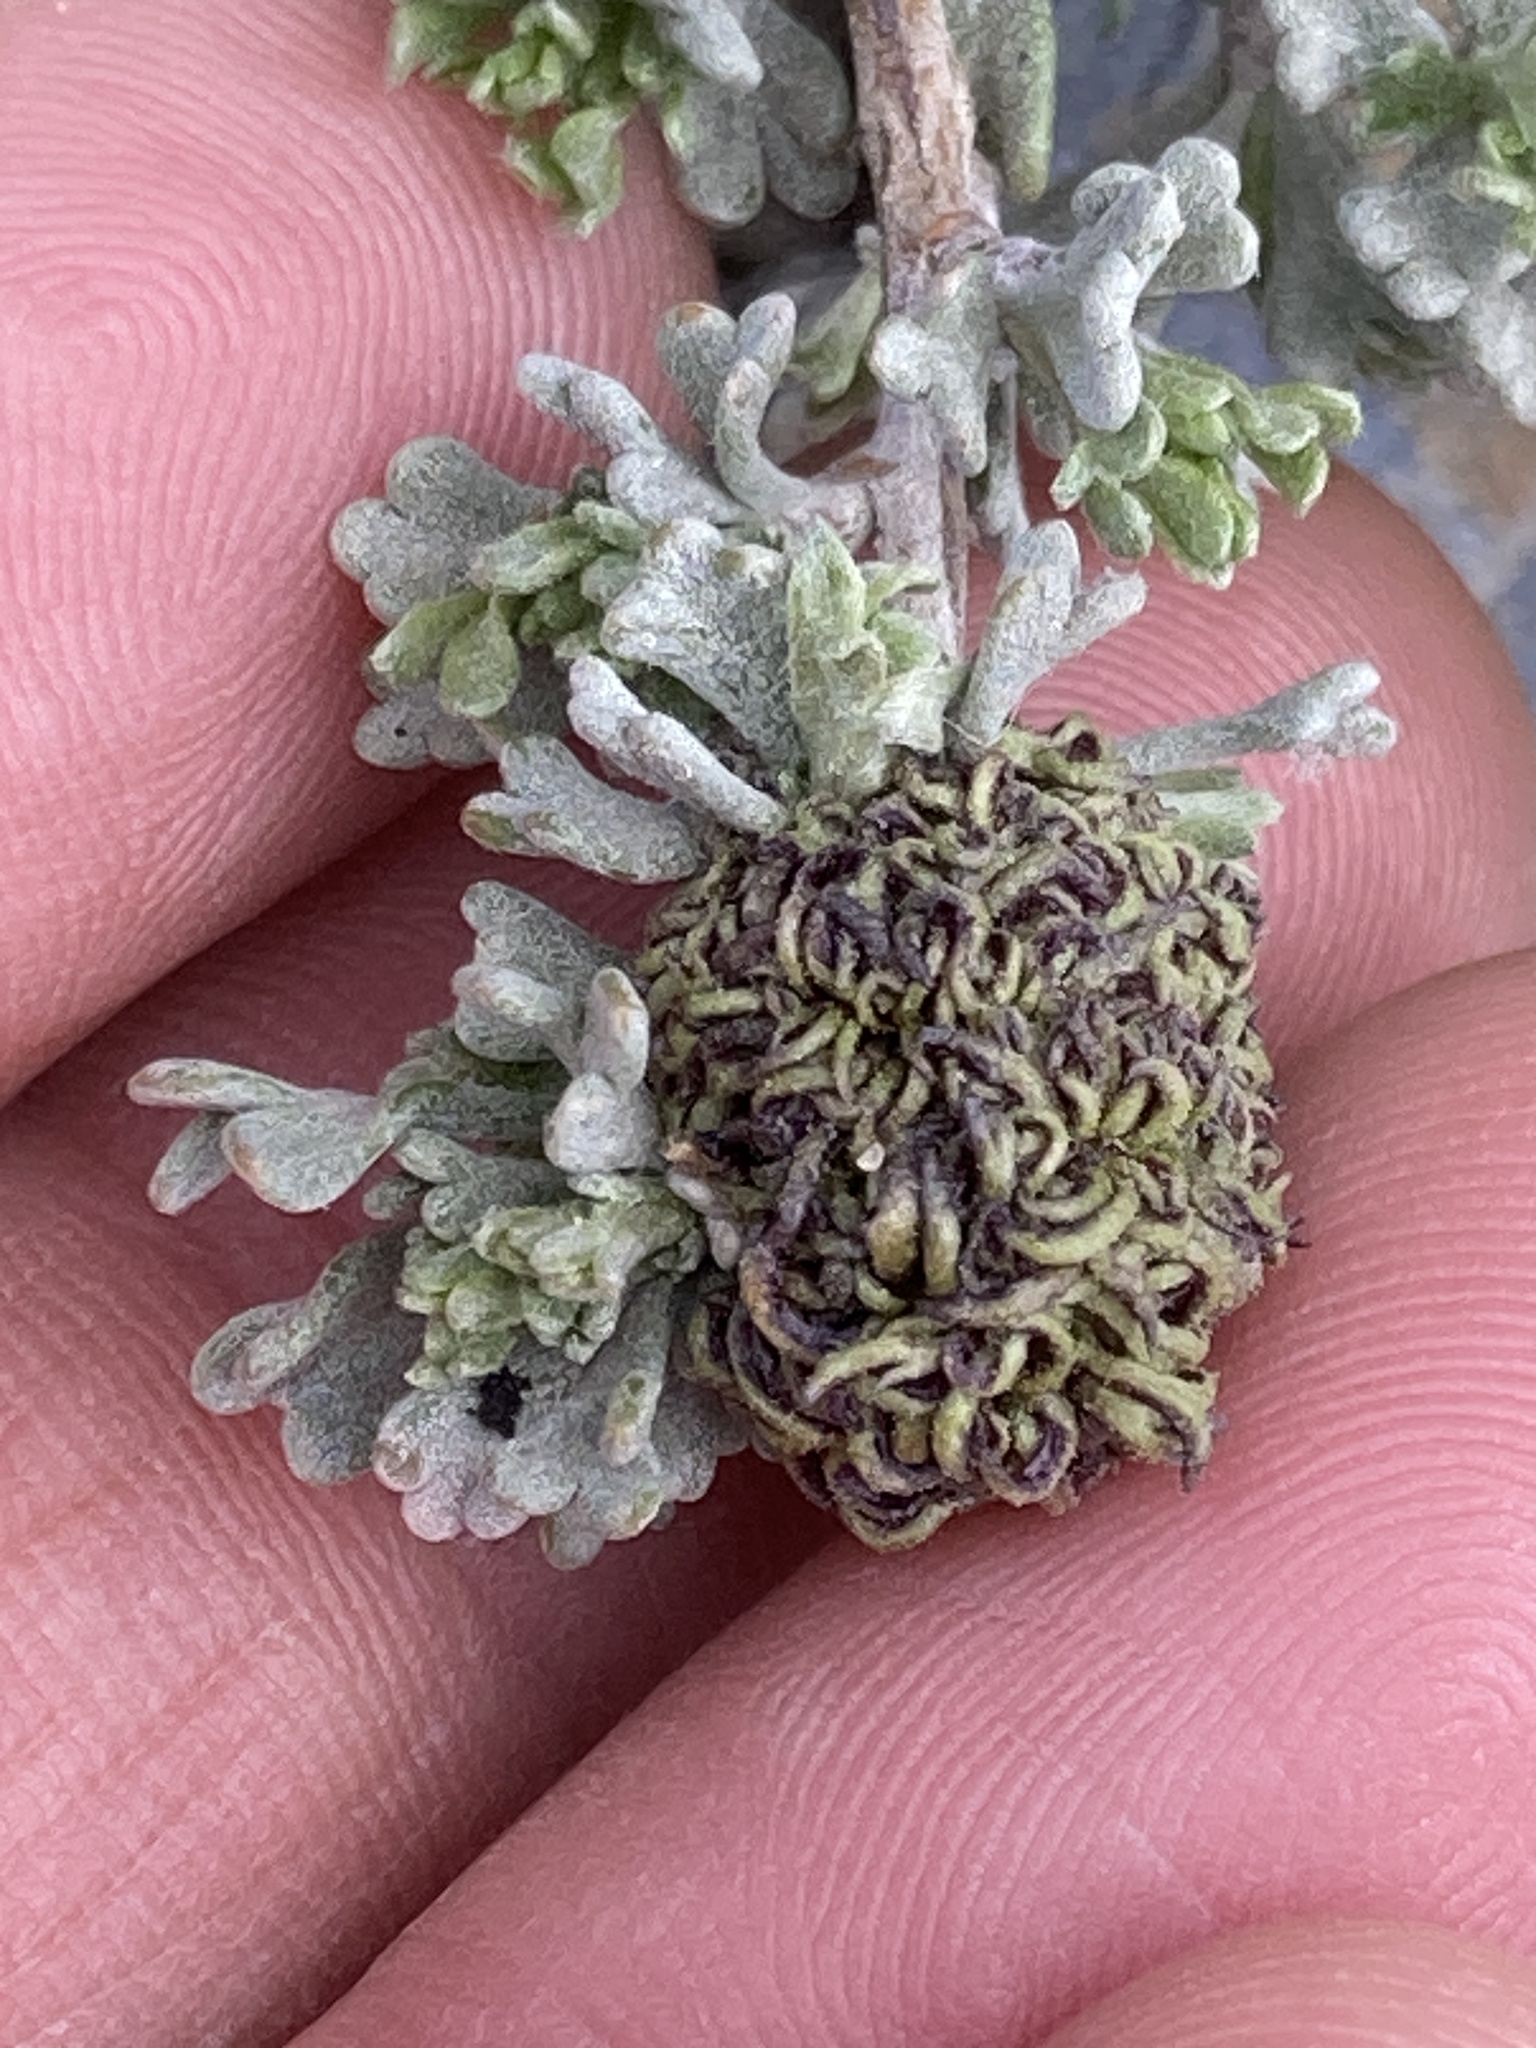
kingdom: Animalia
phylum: Arthropoda
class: Insecta
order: Diptera
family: Cecidomyiidae
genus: Rhopalomyia
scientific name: Rhopalomyia medusa
